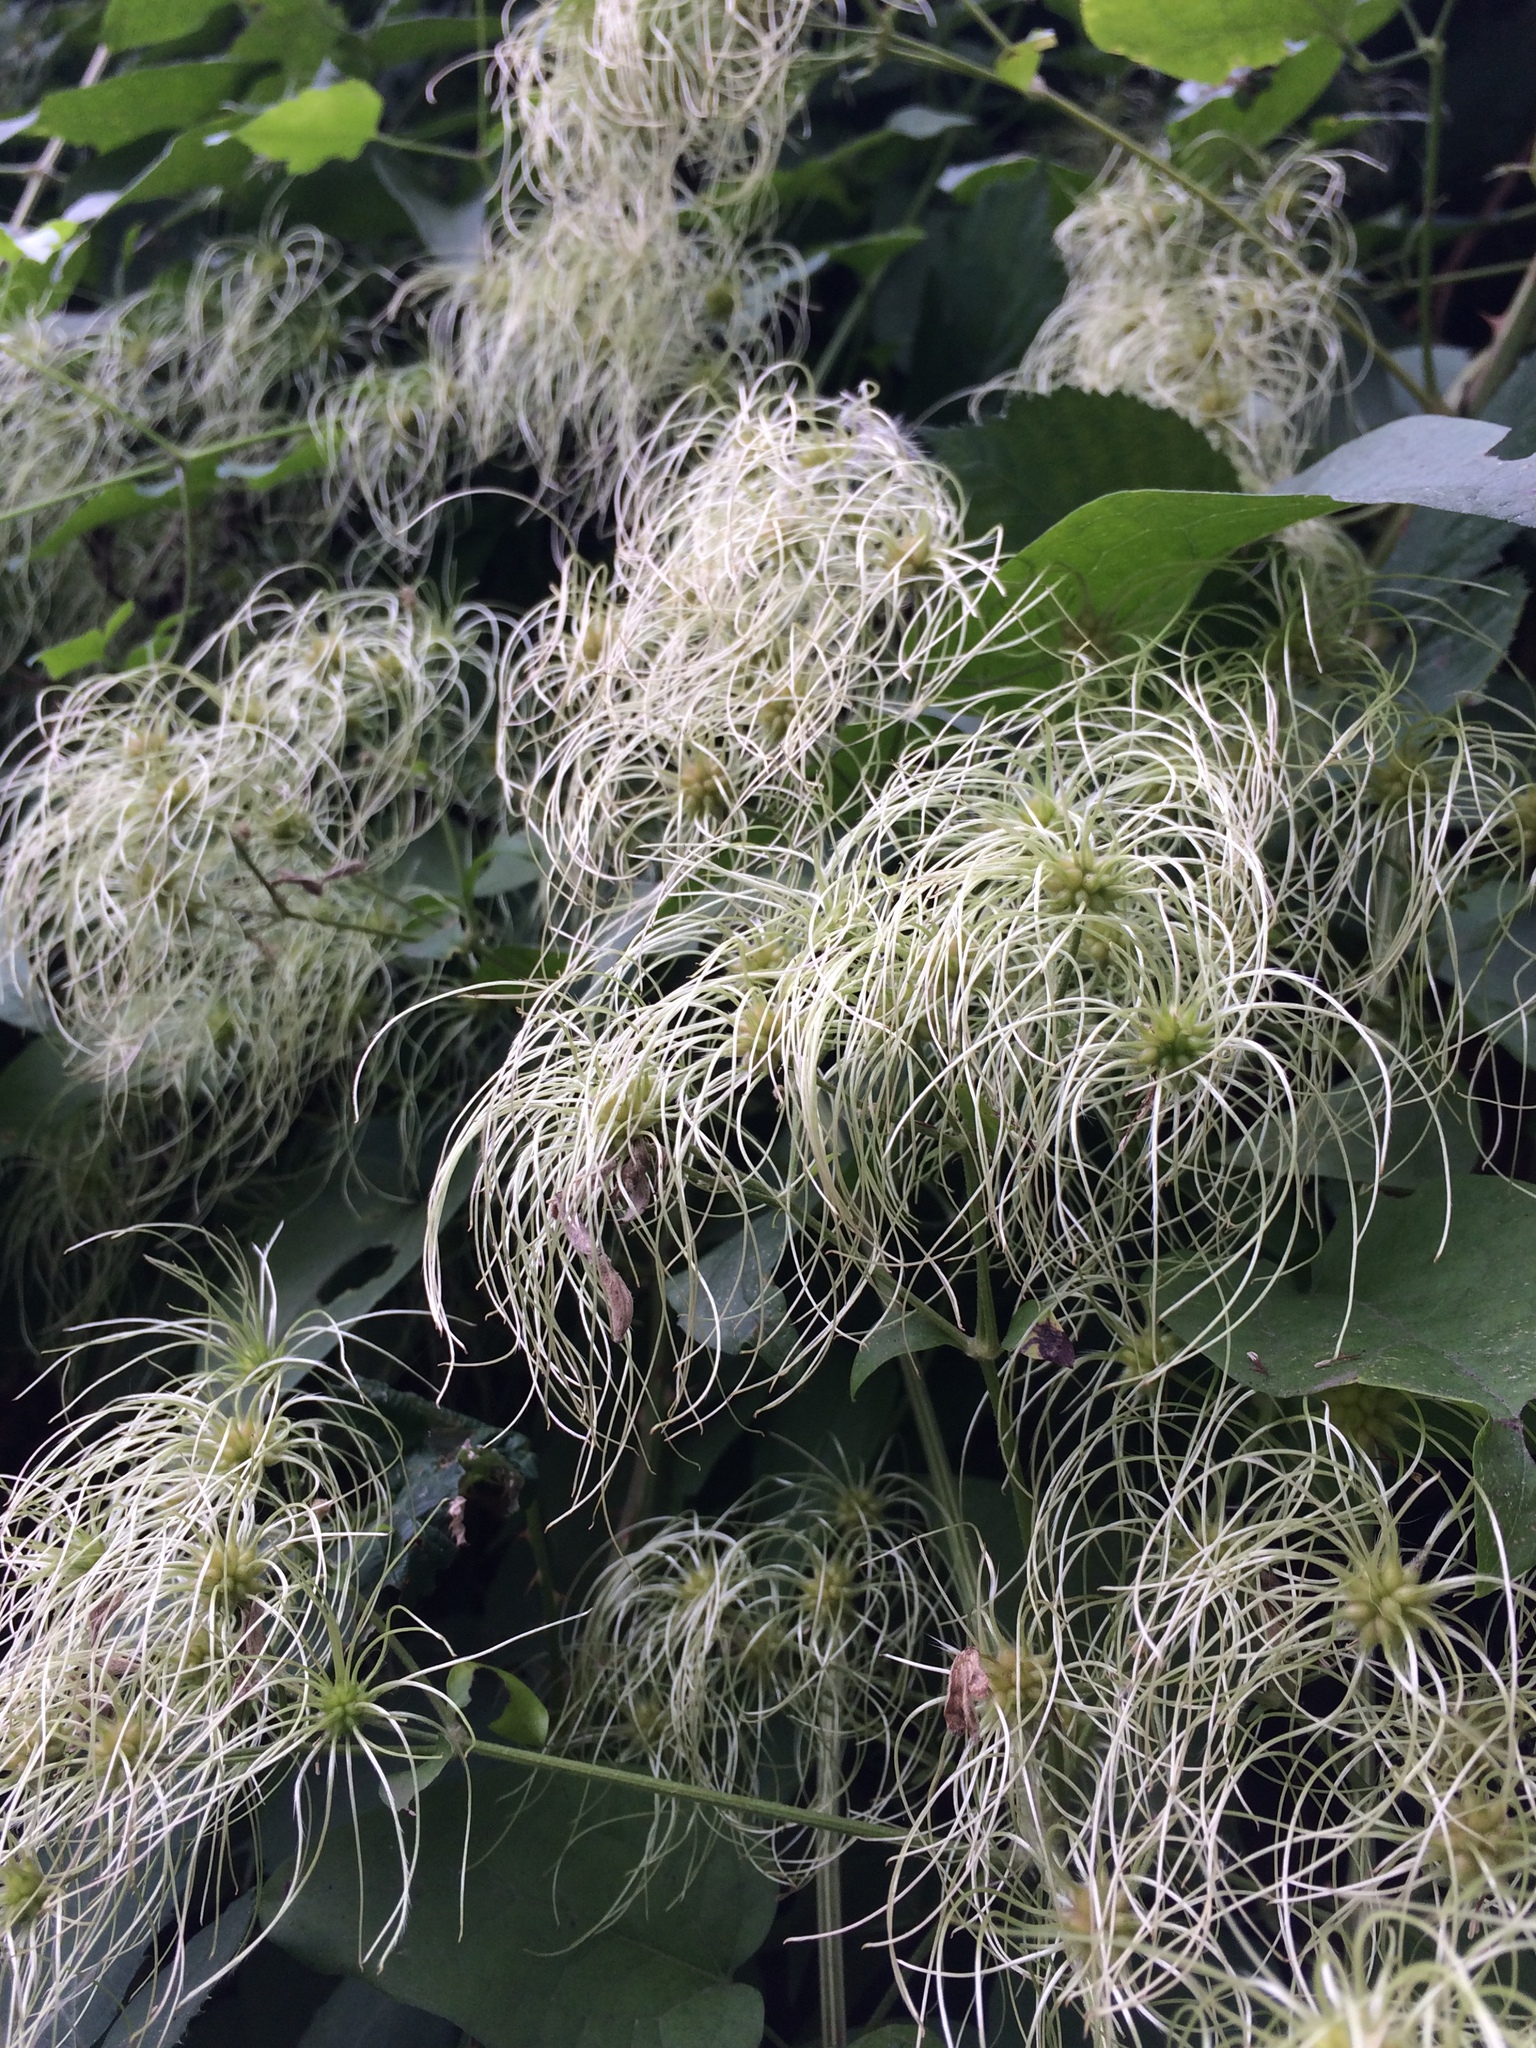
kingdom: Plantae
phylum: Tracheophyta
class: Magnoliopsida
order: Ranunculales
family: Ranunculaceae
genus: Clematis
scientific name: Clematis vitalba
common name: Evergreen clematis
